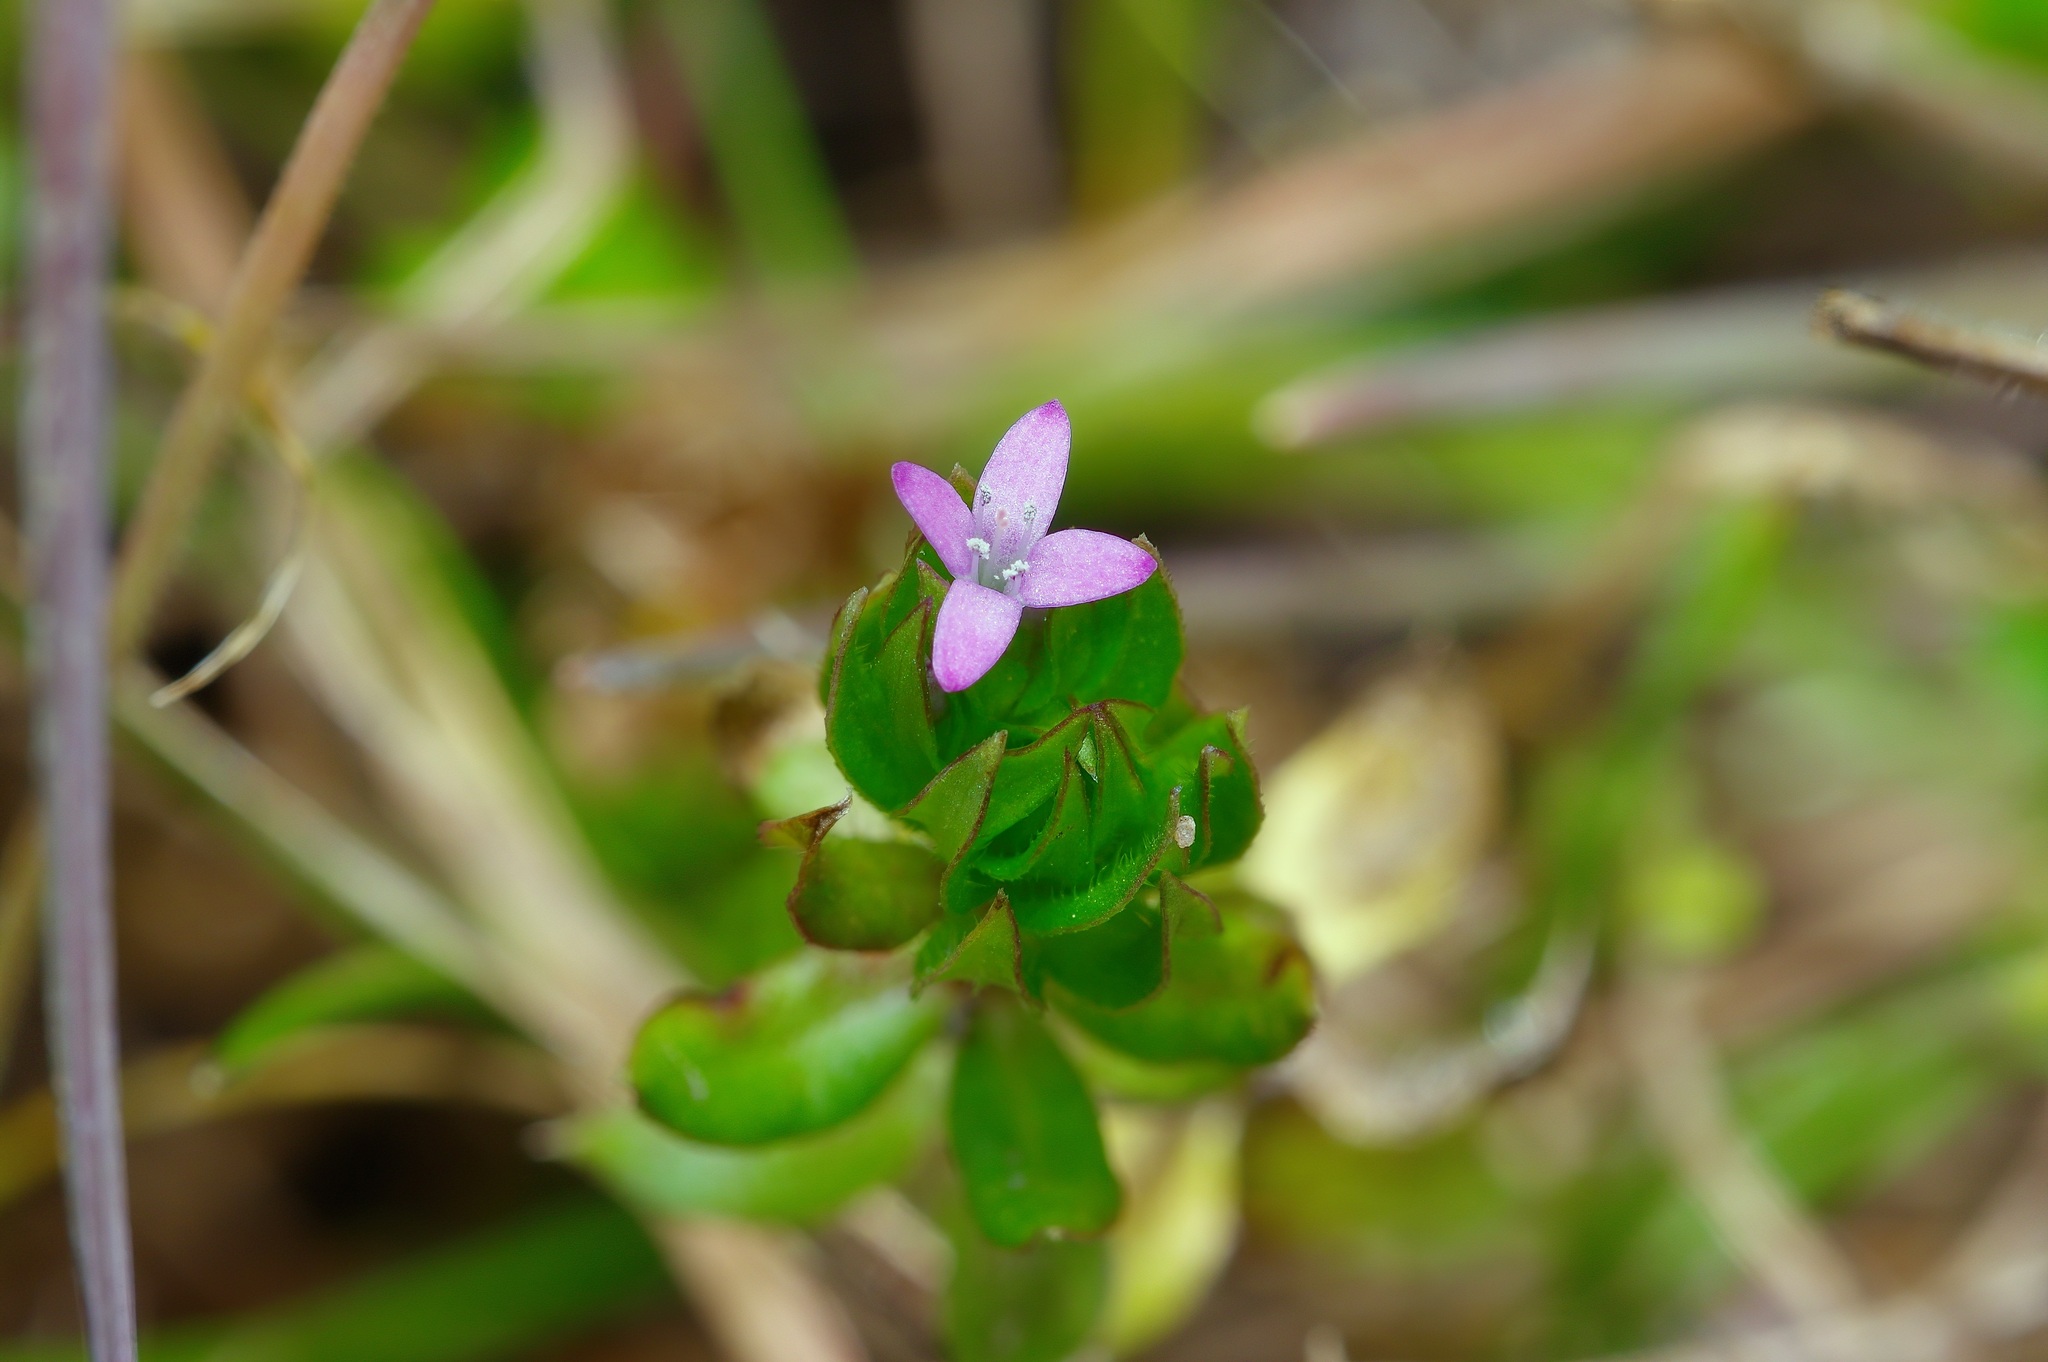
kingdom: Plantae
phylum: Tracheophyta
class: Magnoliopsida
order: Gentianales
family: Rubiaceae
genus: Sherardia
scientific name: Sherardia arvensis
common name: Field madder
